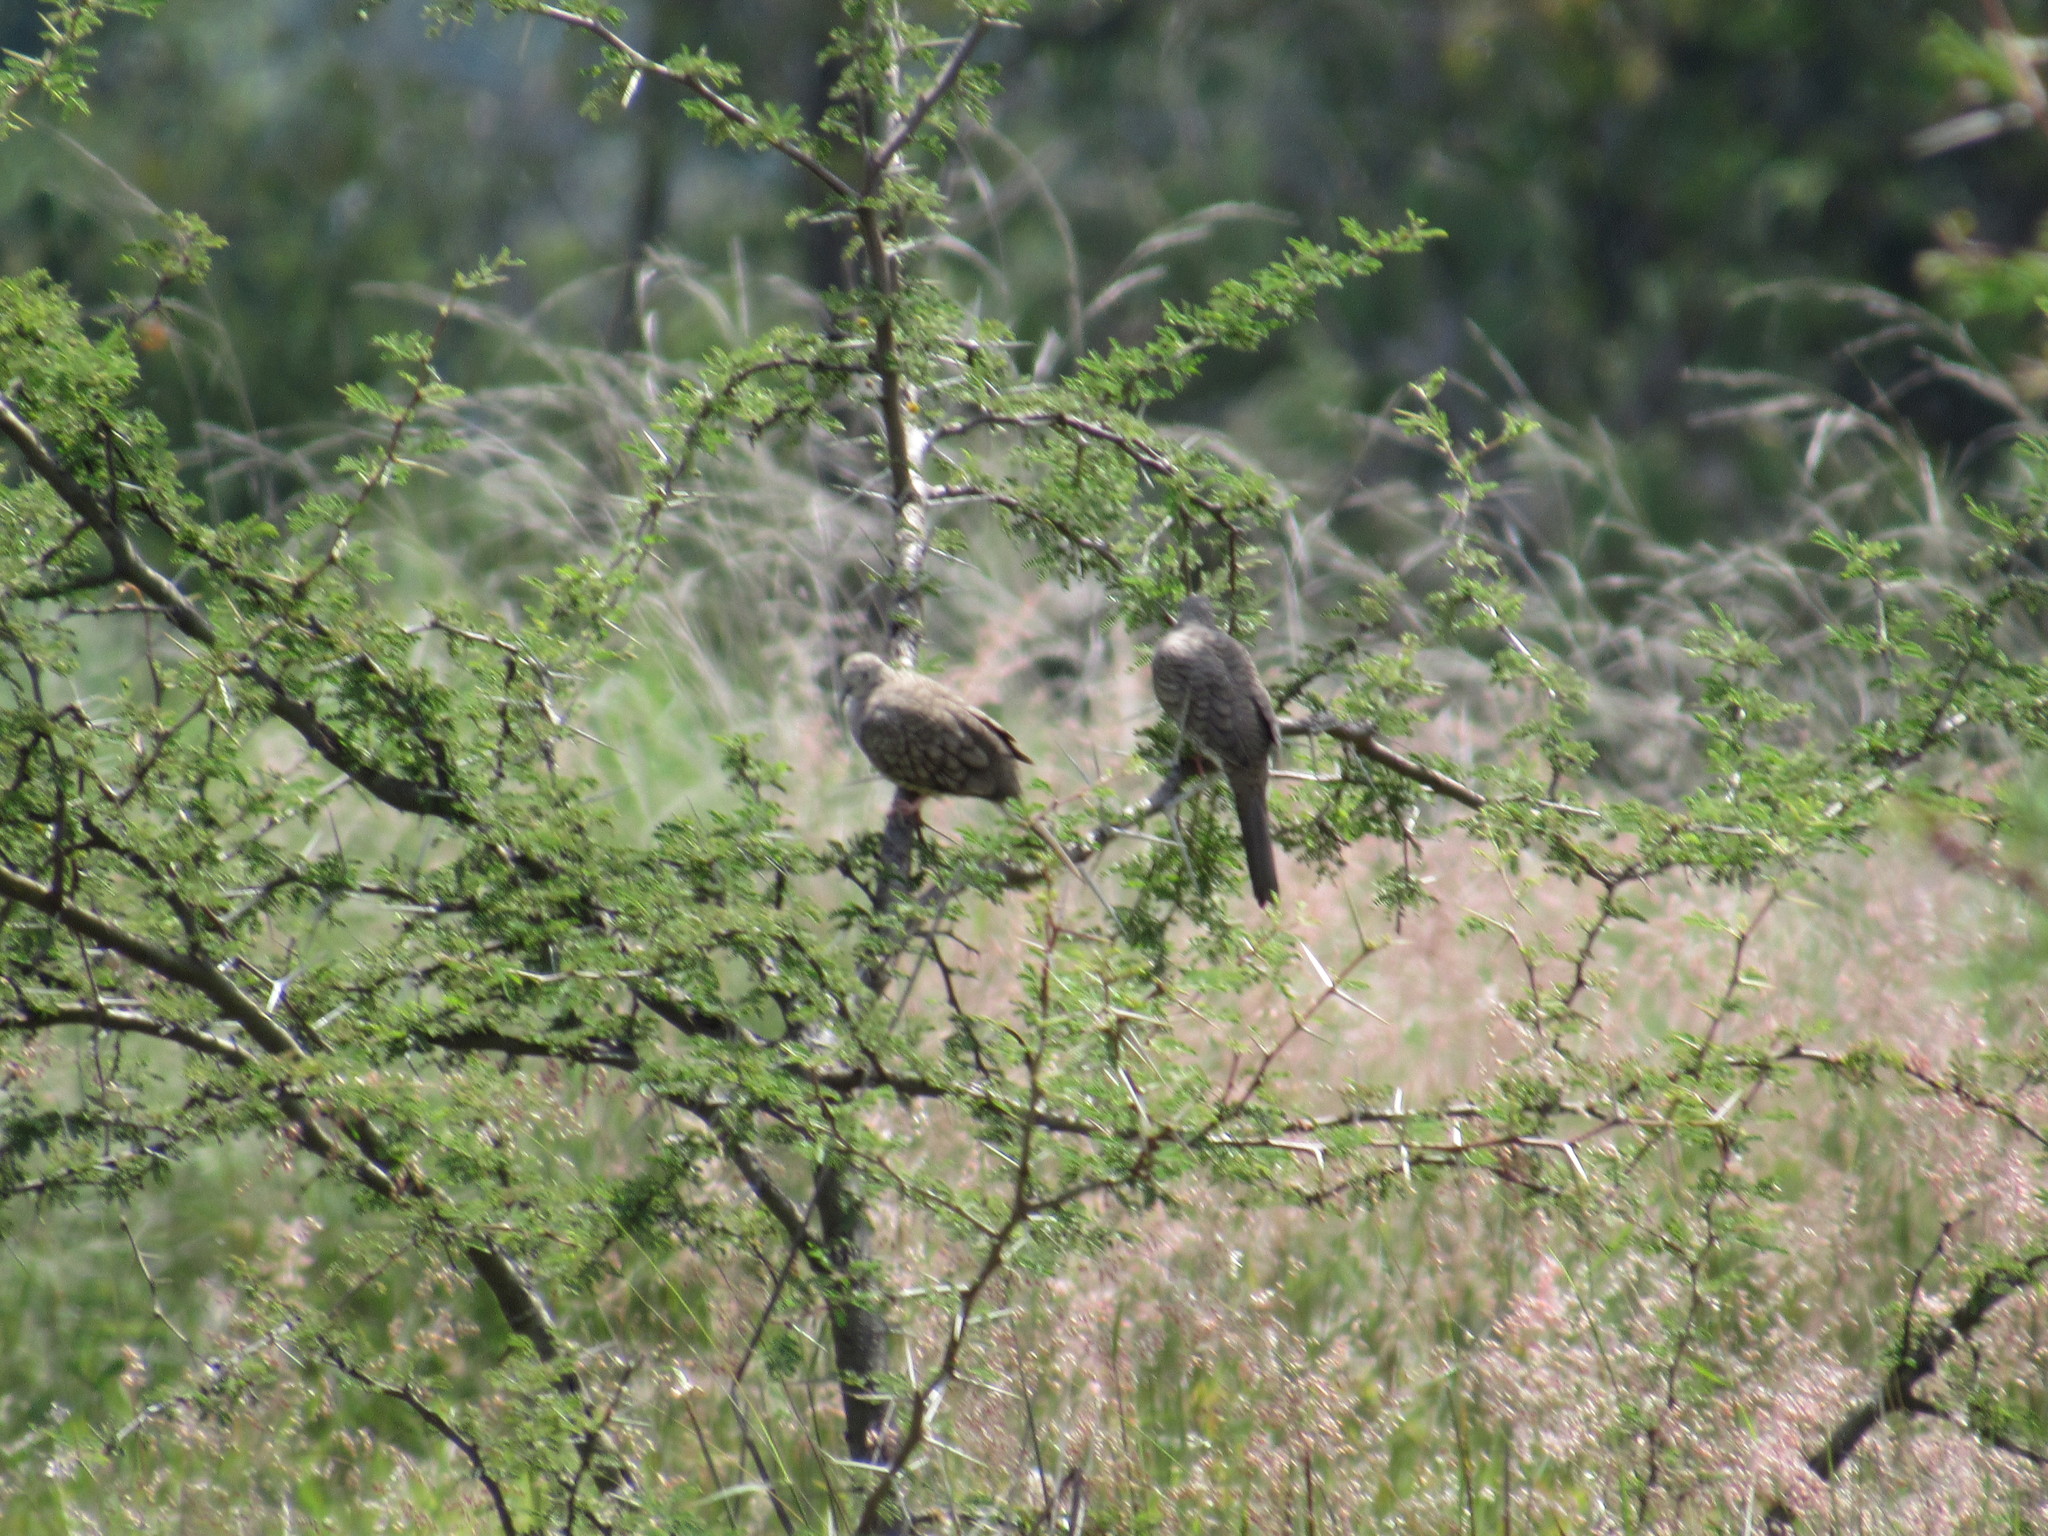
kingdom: Animalia
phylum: Chordata
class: Aves
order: Columbiformes
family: Columbidae
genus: Columbina
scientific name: Columbina inca
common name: Inca dove
